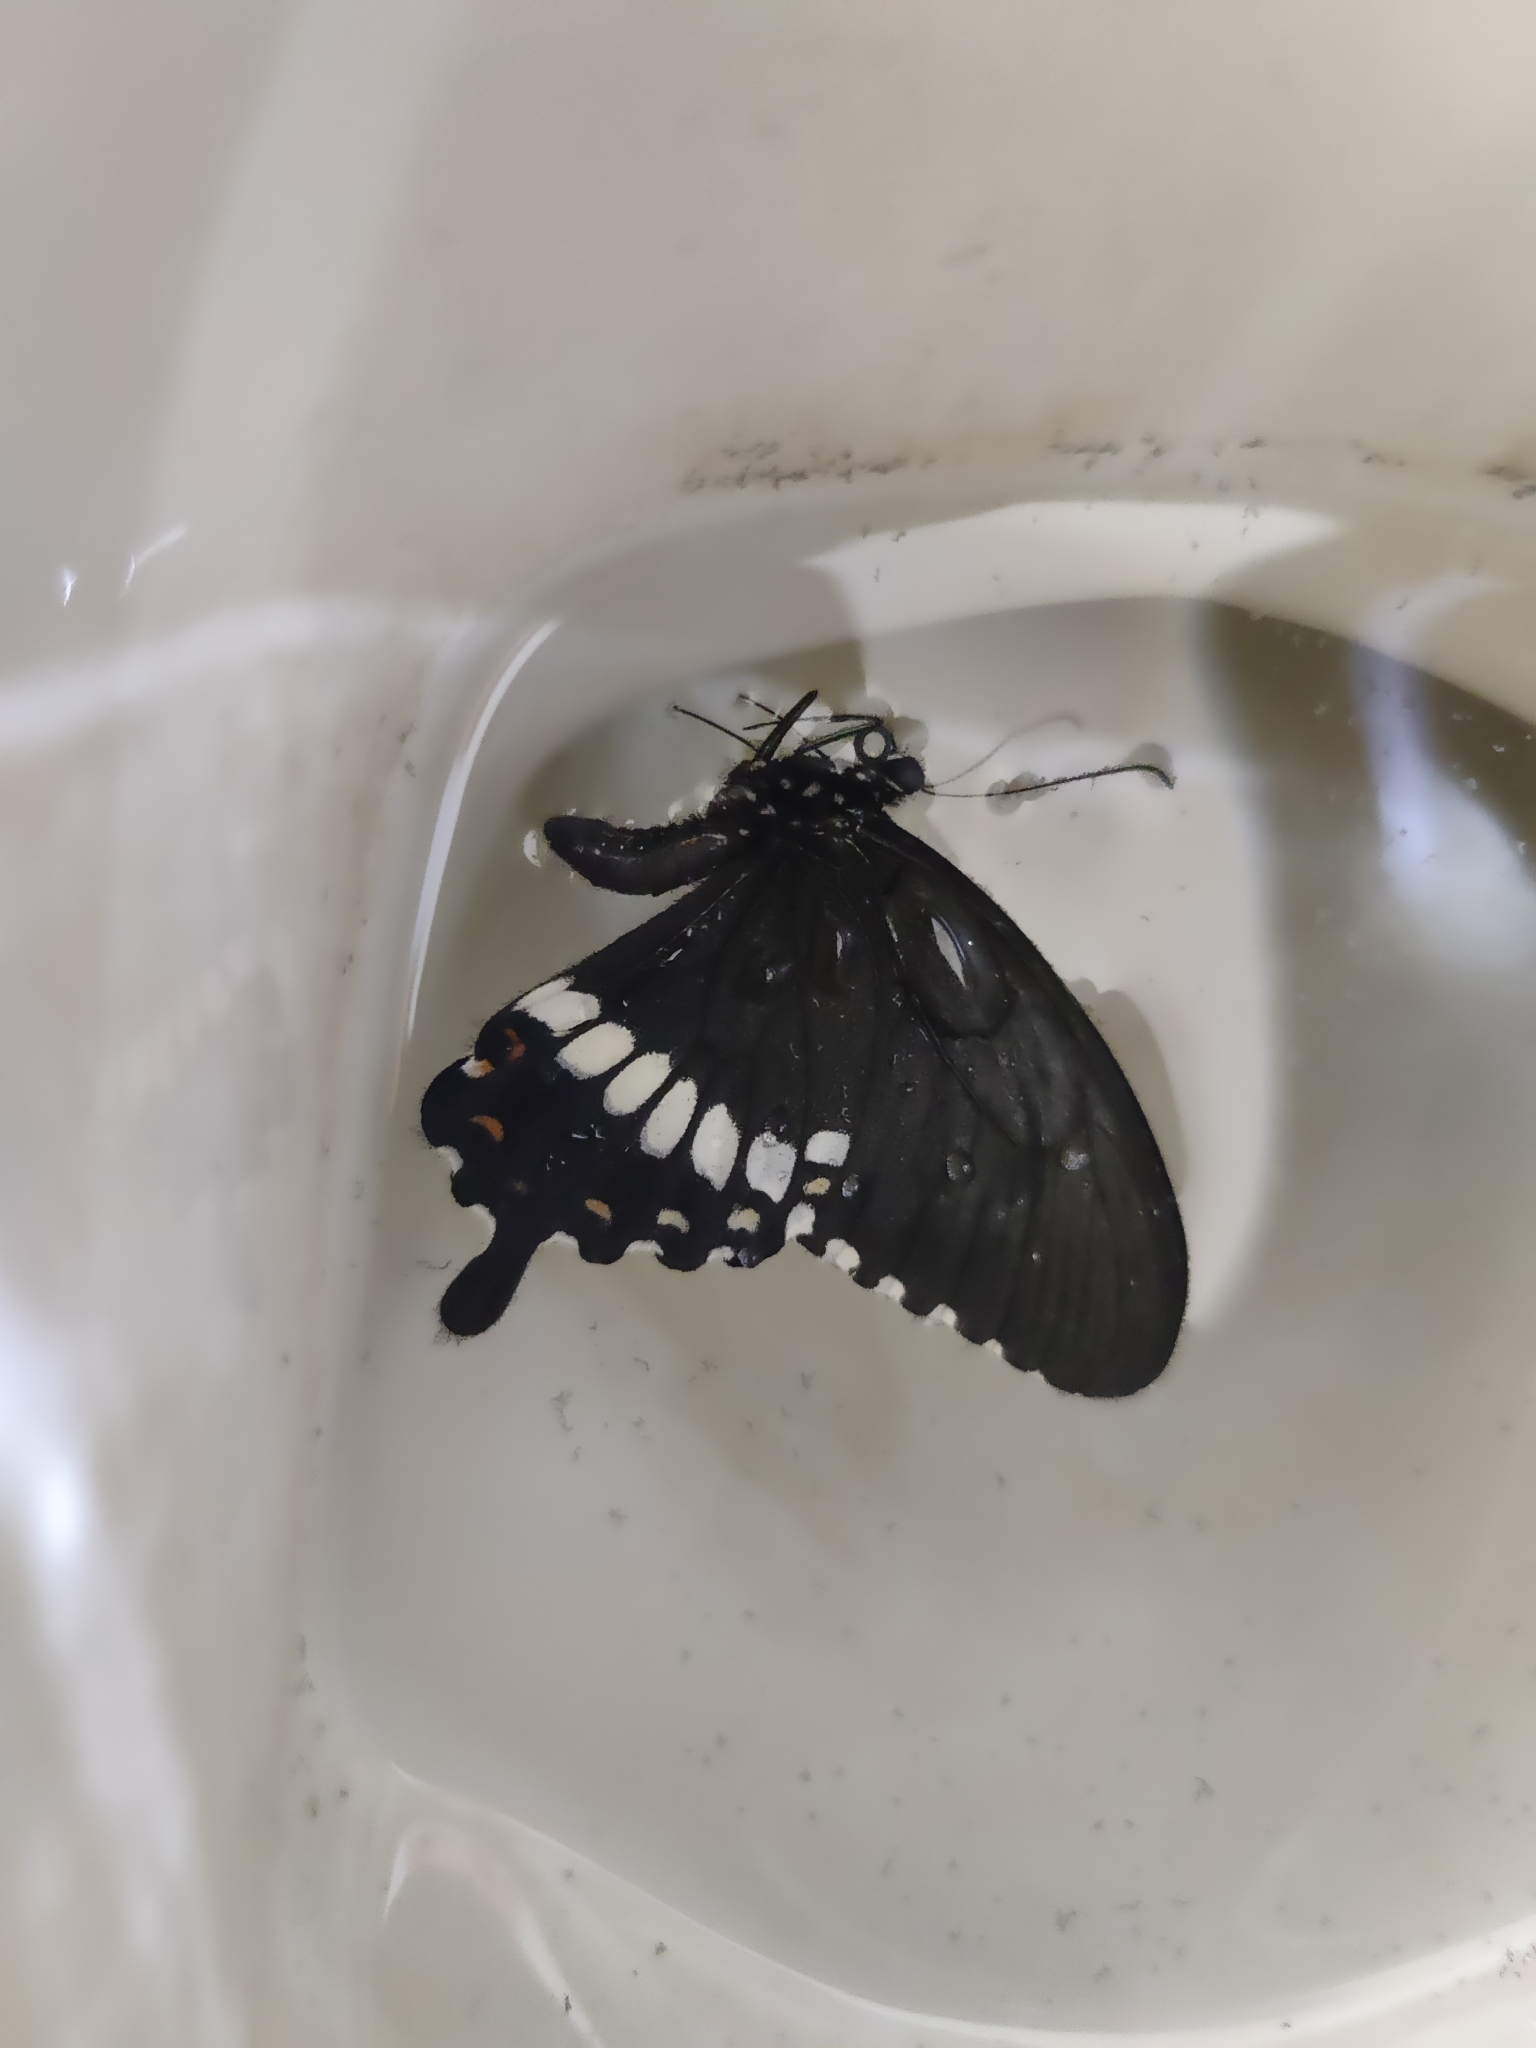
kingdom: Animalia
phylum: Arthropoda
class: Insecta
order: Lepidoptera
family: Papilionidae
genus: Papilio
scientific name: Papilio polytes
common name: Common mormon
